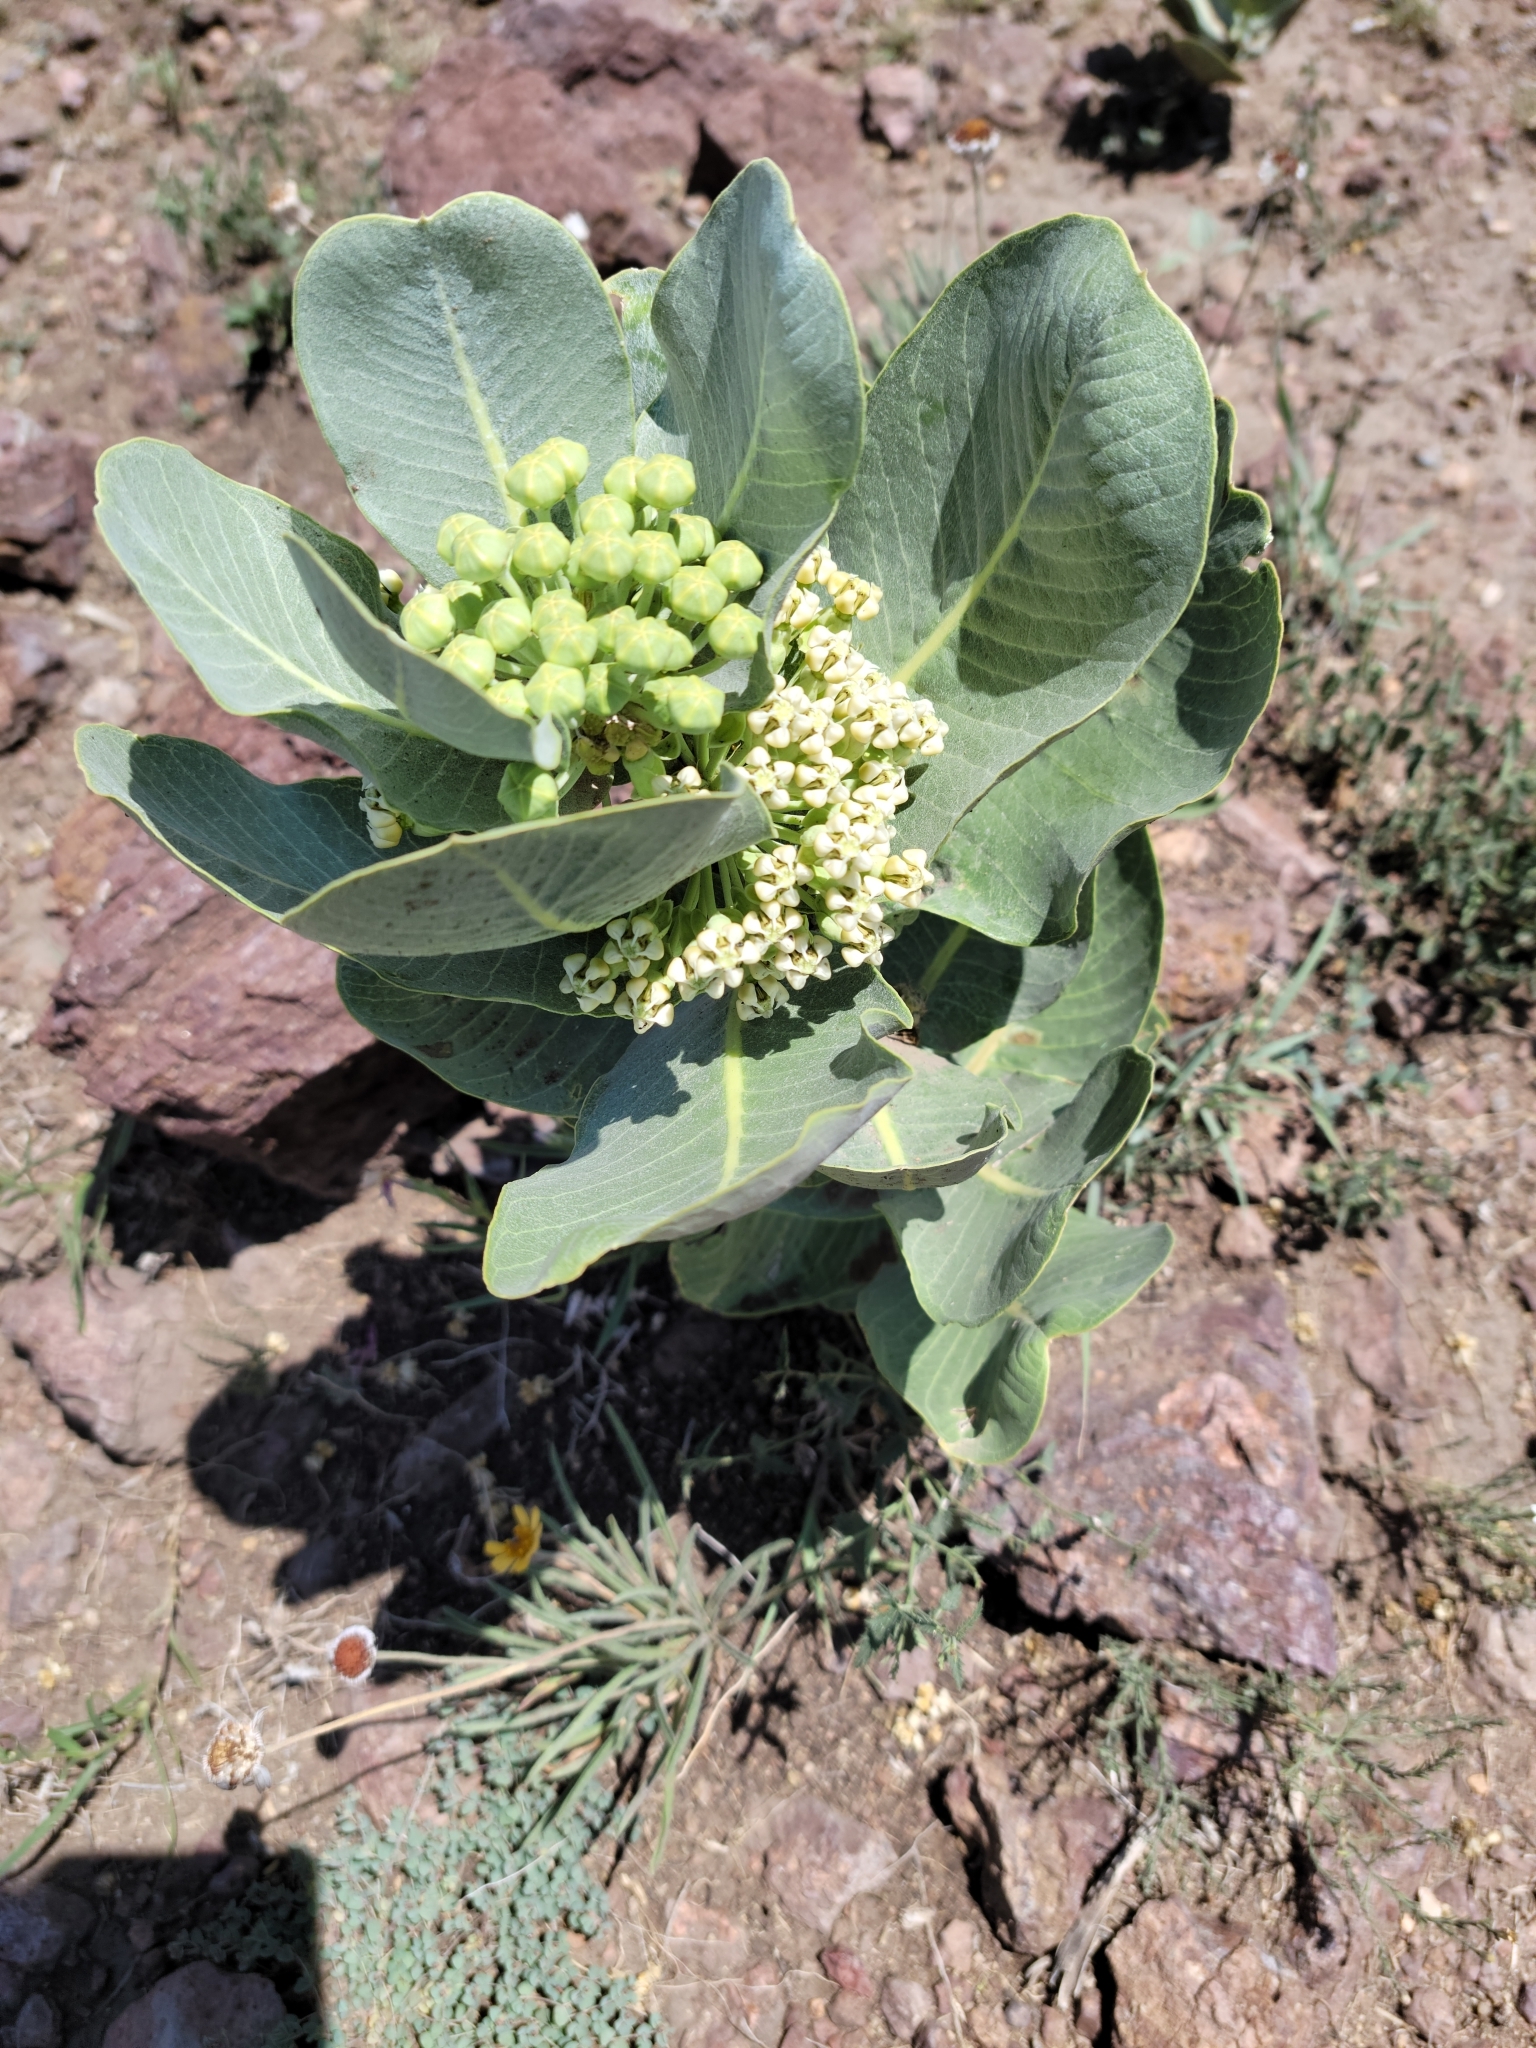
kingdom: Plantae
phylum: Tracheophyta
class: Magnoliopsida
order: Gentianales
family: Apocynaceae
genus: Asclepias
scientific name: Asclepias latifolia
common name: Broadleaf milkweed
